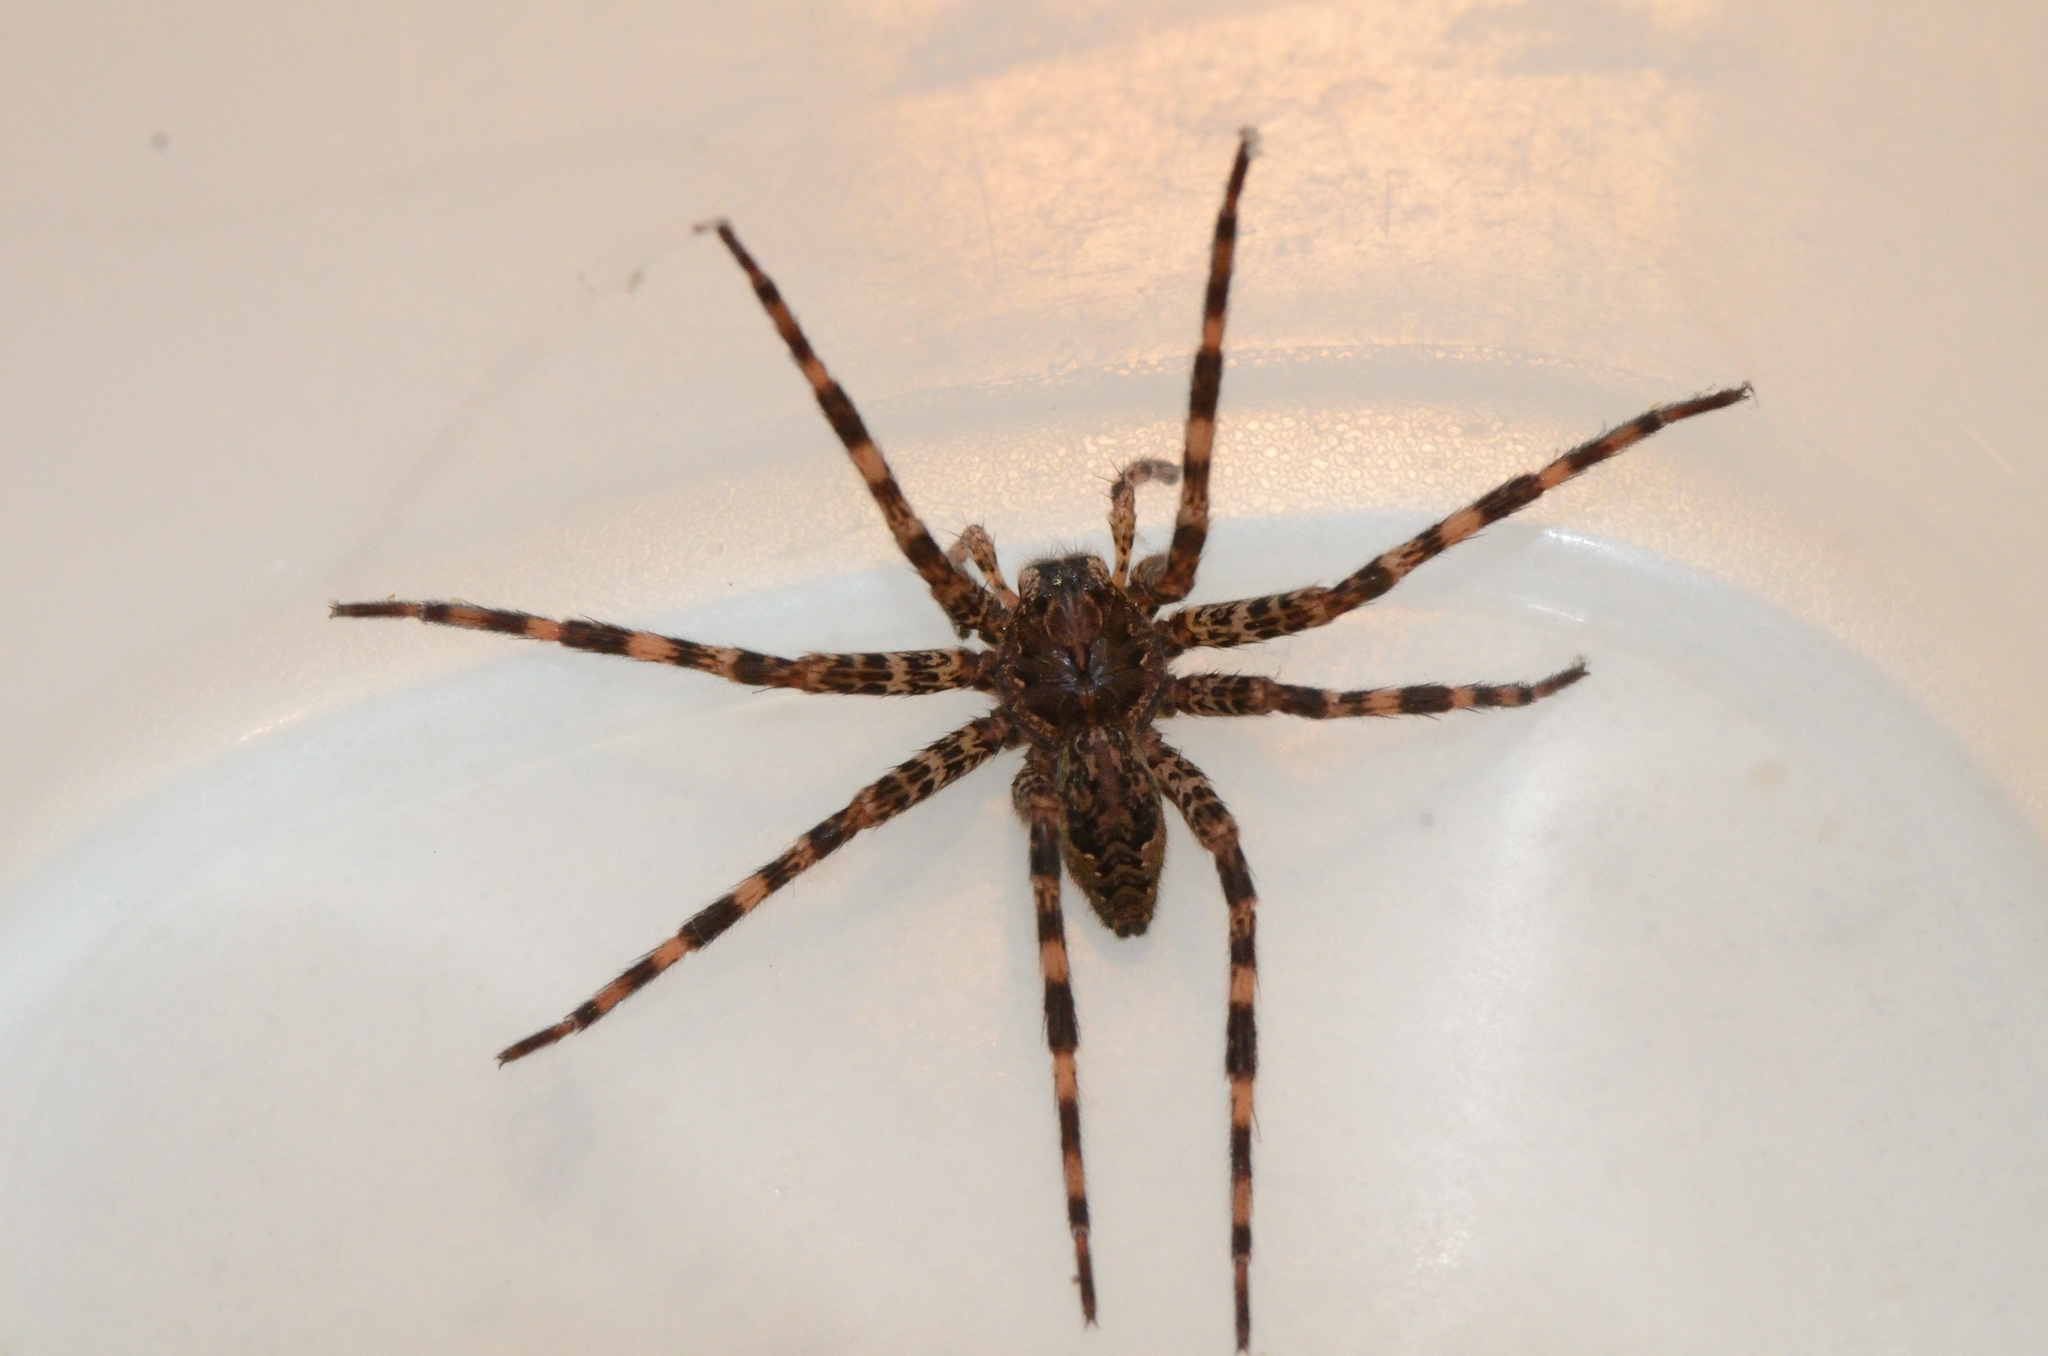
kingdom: Animalia
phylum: Arthropoda
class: Arachnida
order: Araneae
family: Pisauridae
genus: Dolomedes
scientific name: Dolomedes tenebrosus
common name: Dark fishing spider
